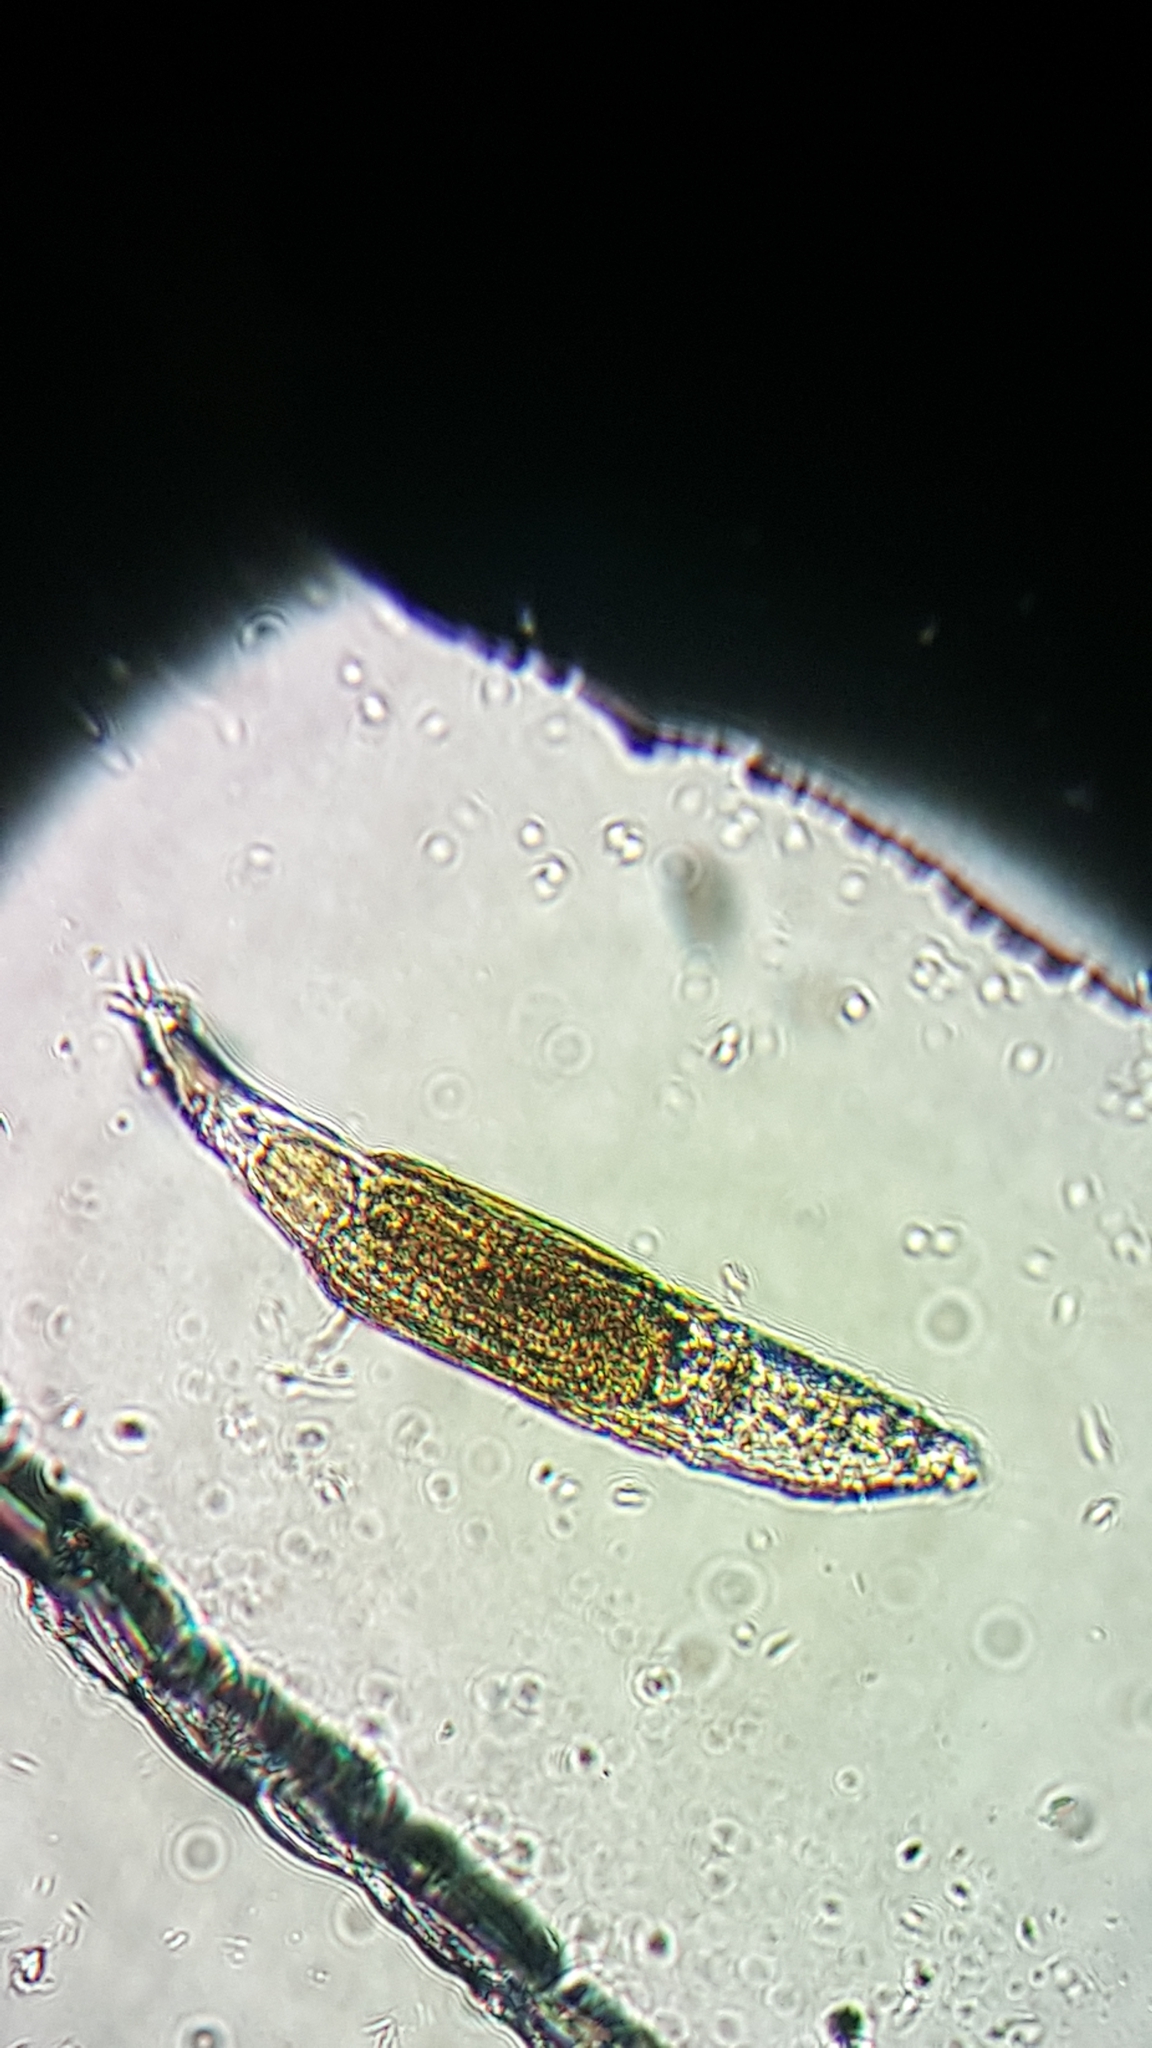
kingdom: Animalia
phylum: Rotifera
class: Eurotatoria
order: Bdelloidea
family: Philodinidae
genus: Philodina
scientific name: Philodina citrina
